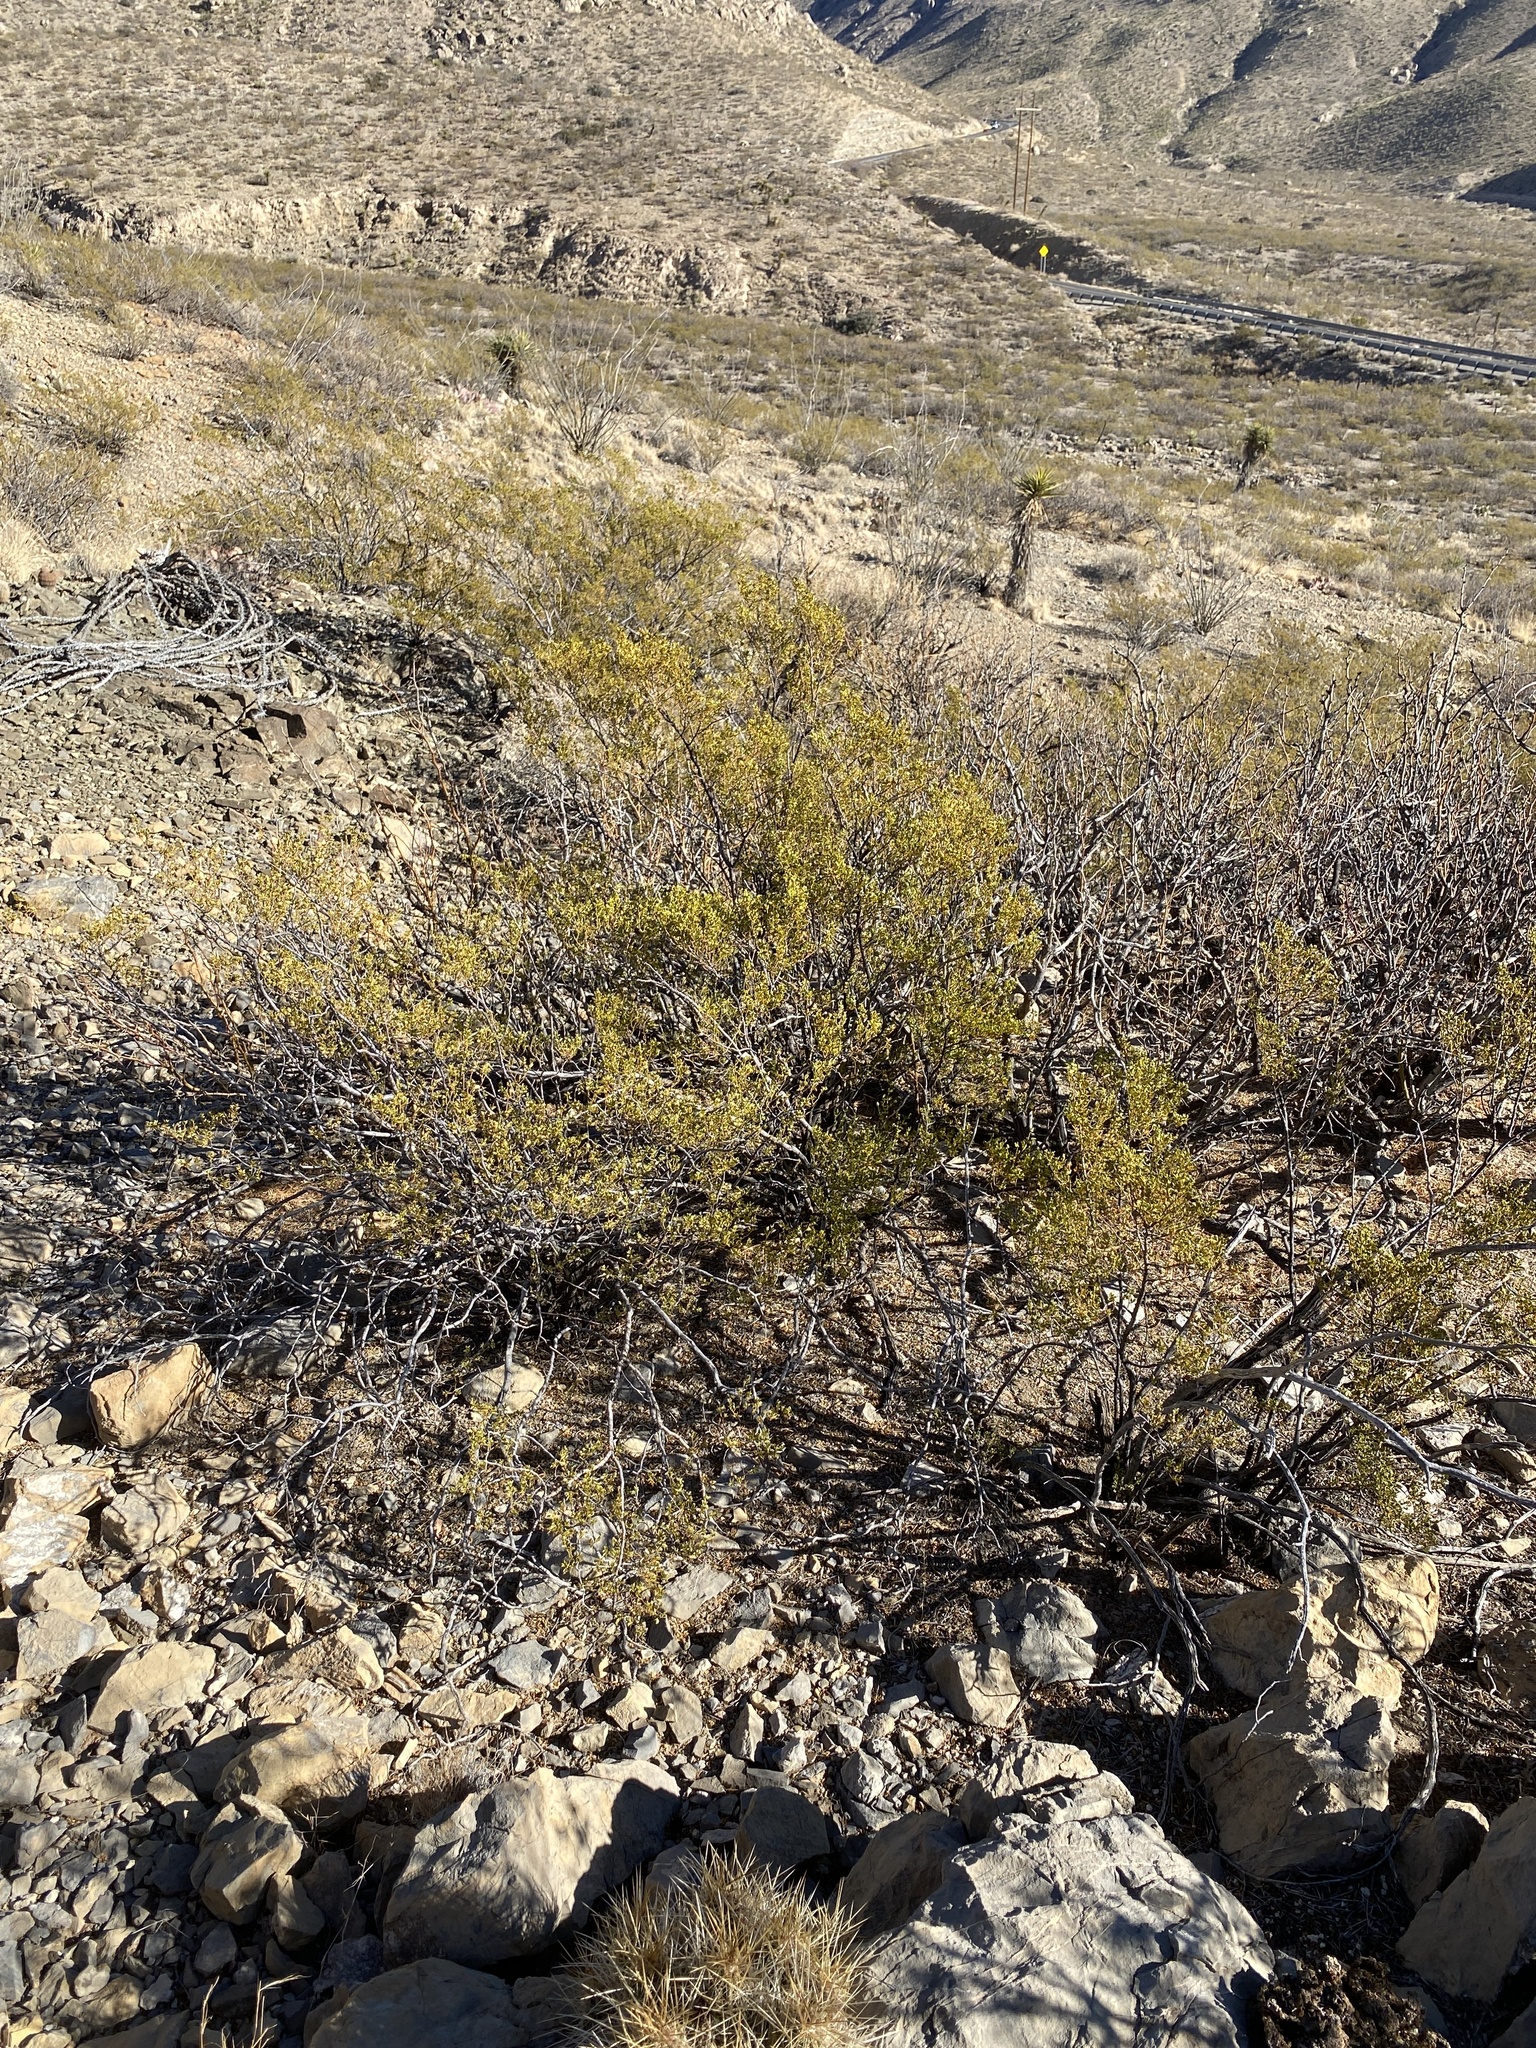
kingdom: Plantae
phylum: Tracheophyta
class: Magnoliopsida
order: Zygophyllales
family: Zygophyllaceae
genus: Larrea
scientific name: Larrea tridentata
